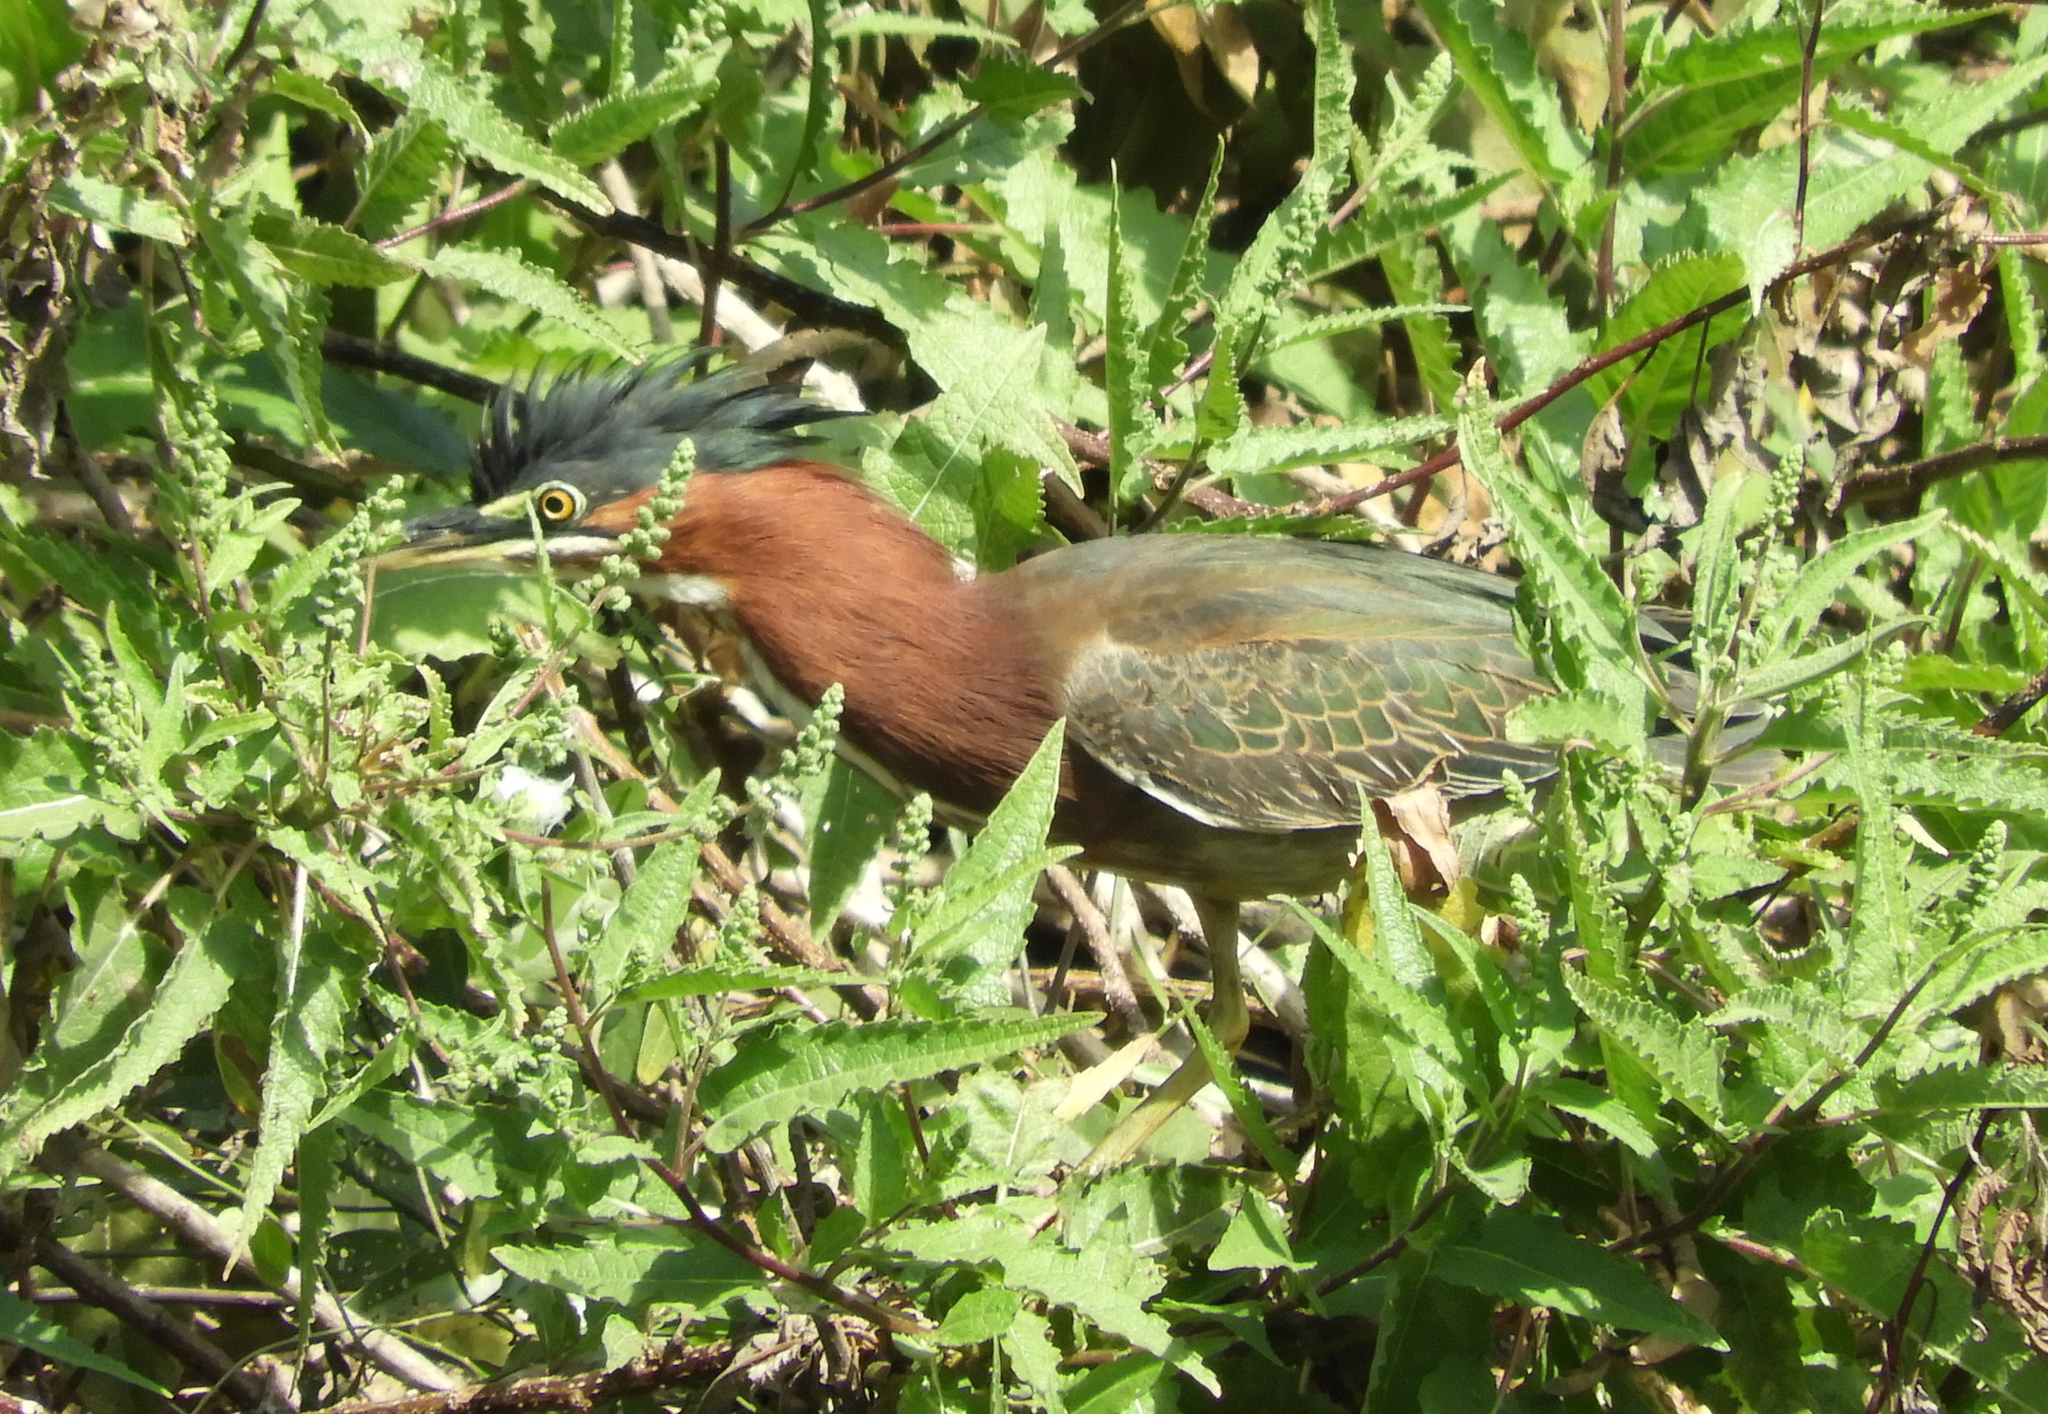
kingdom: Animalia
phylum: Chordata
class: Aves
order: Pelecaniformes
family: Ardeidae
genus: Butorides
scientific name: Butorides virescens
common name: Green heron
